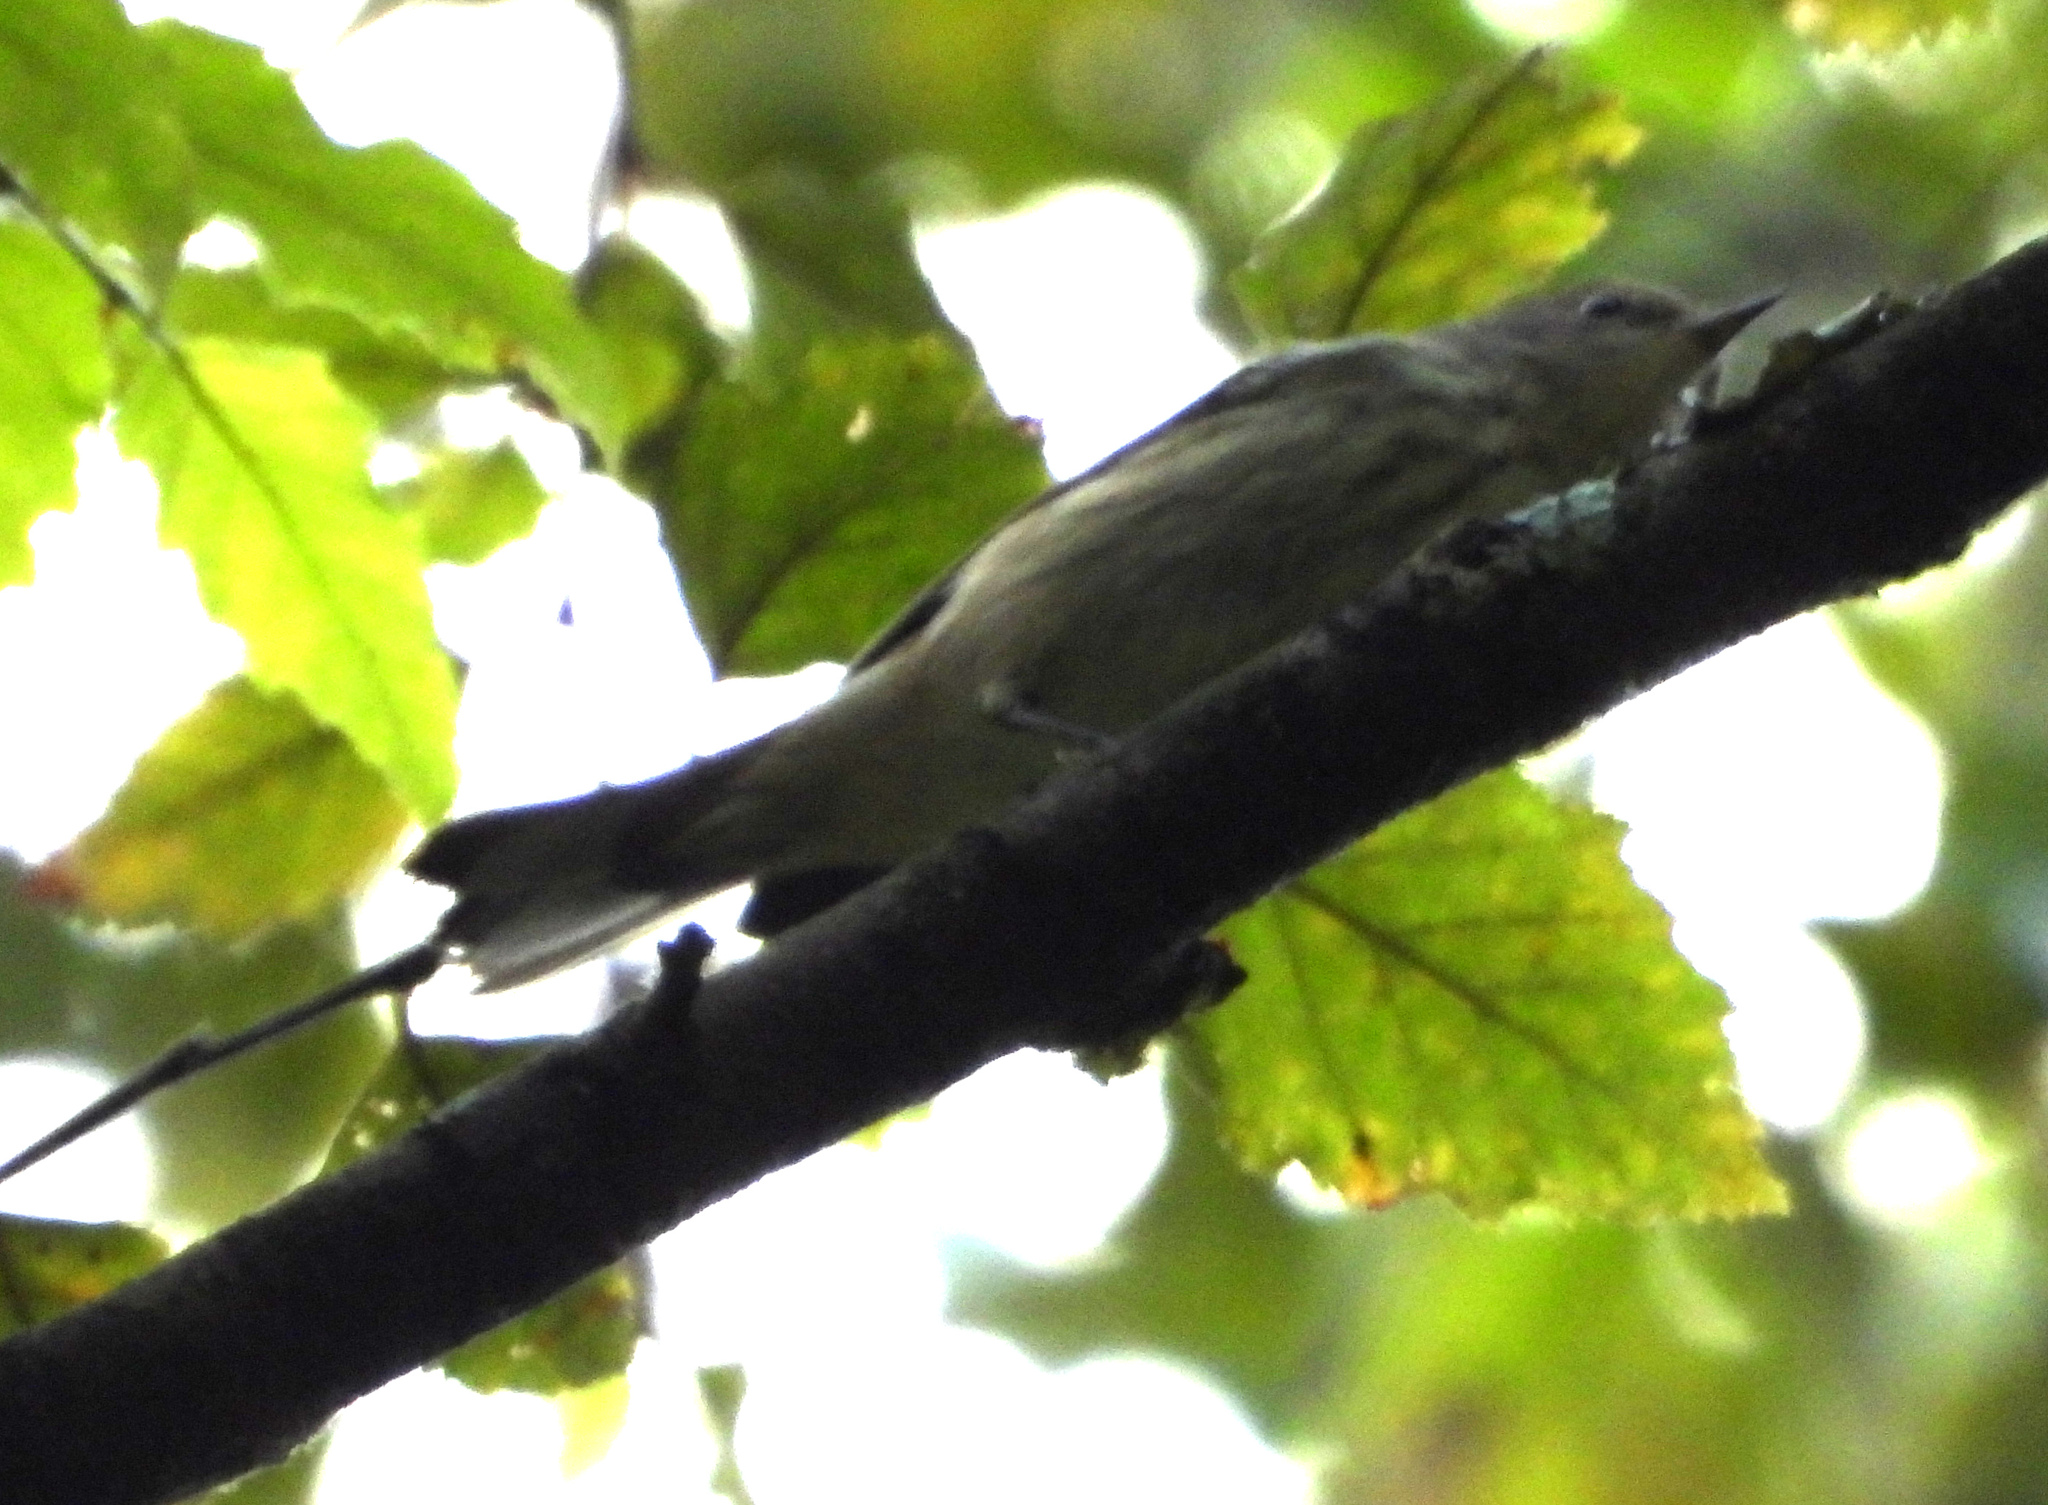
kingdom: Animalia
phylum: Chordata
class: Aves
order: Passeriformes
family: Parulidae
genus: Setophaga
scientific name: Setophaga tigrina
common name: Cape may warbler
